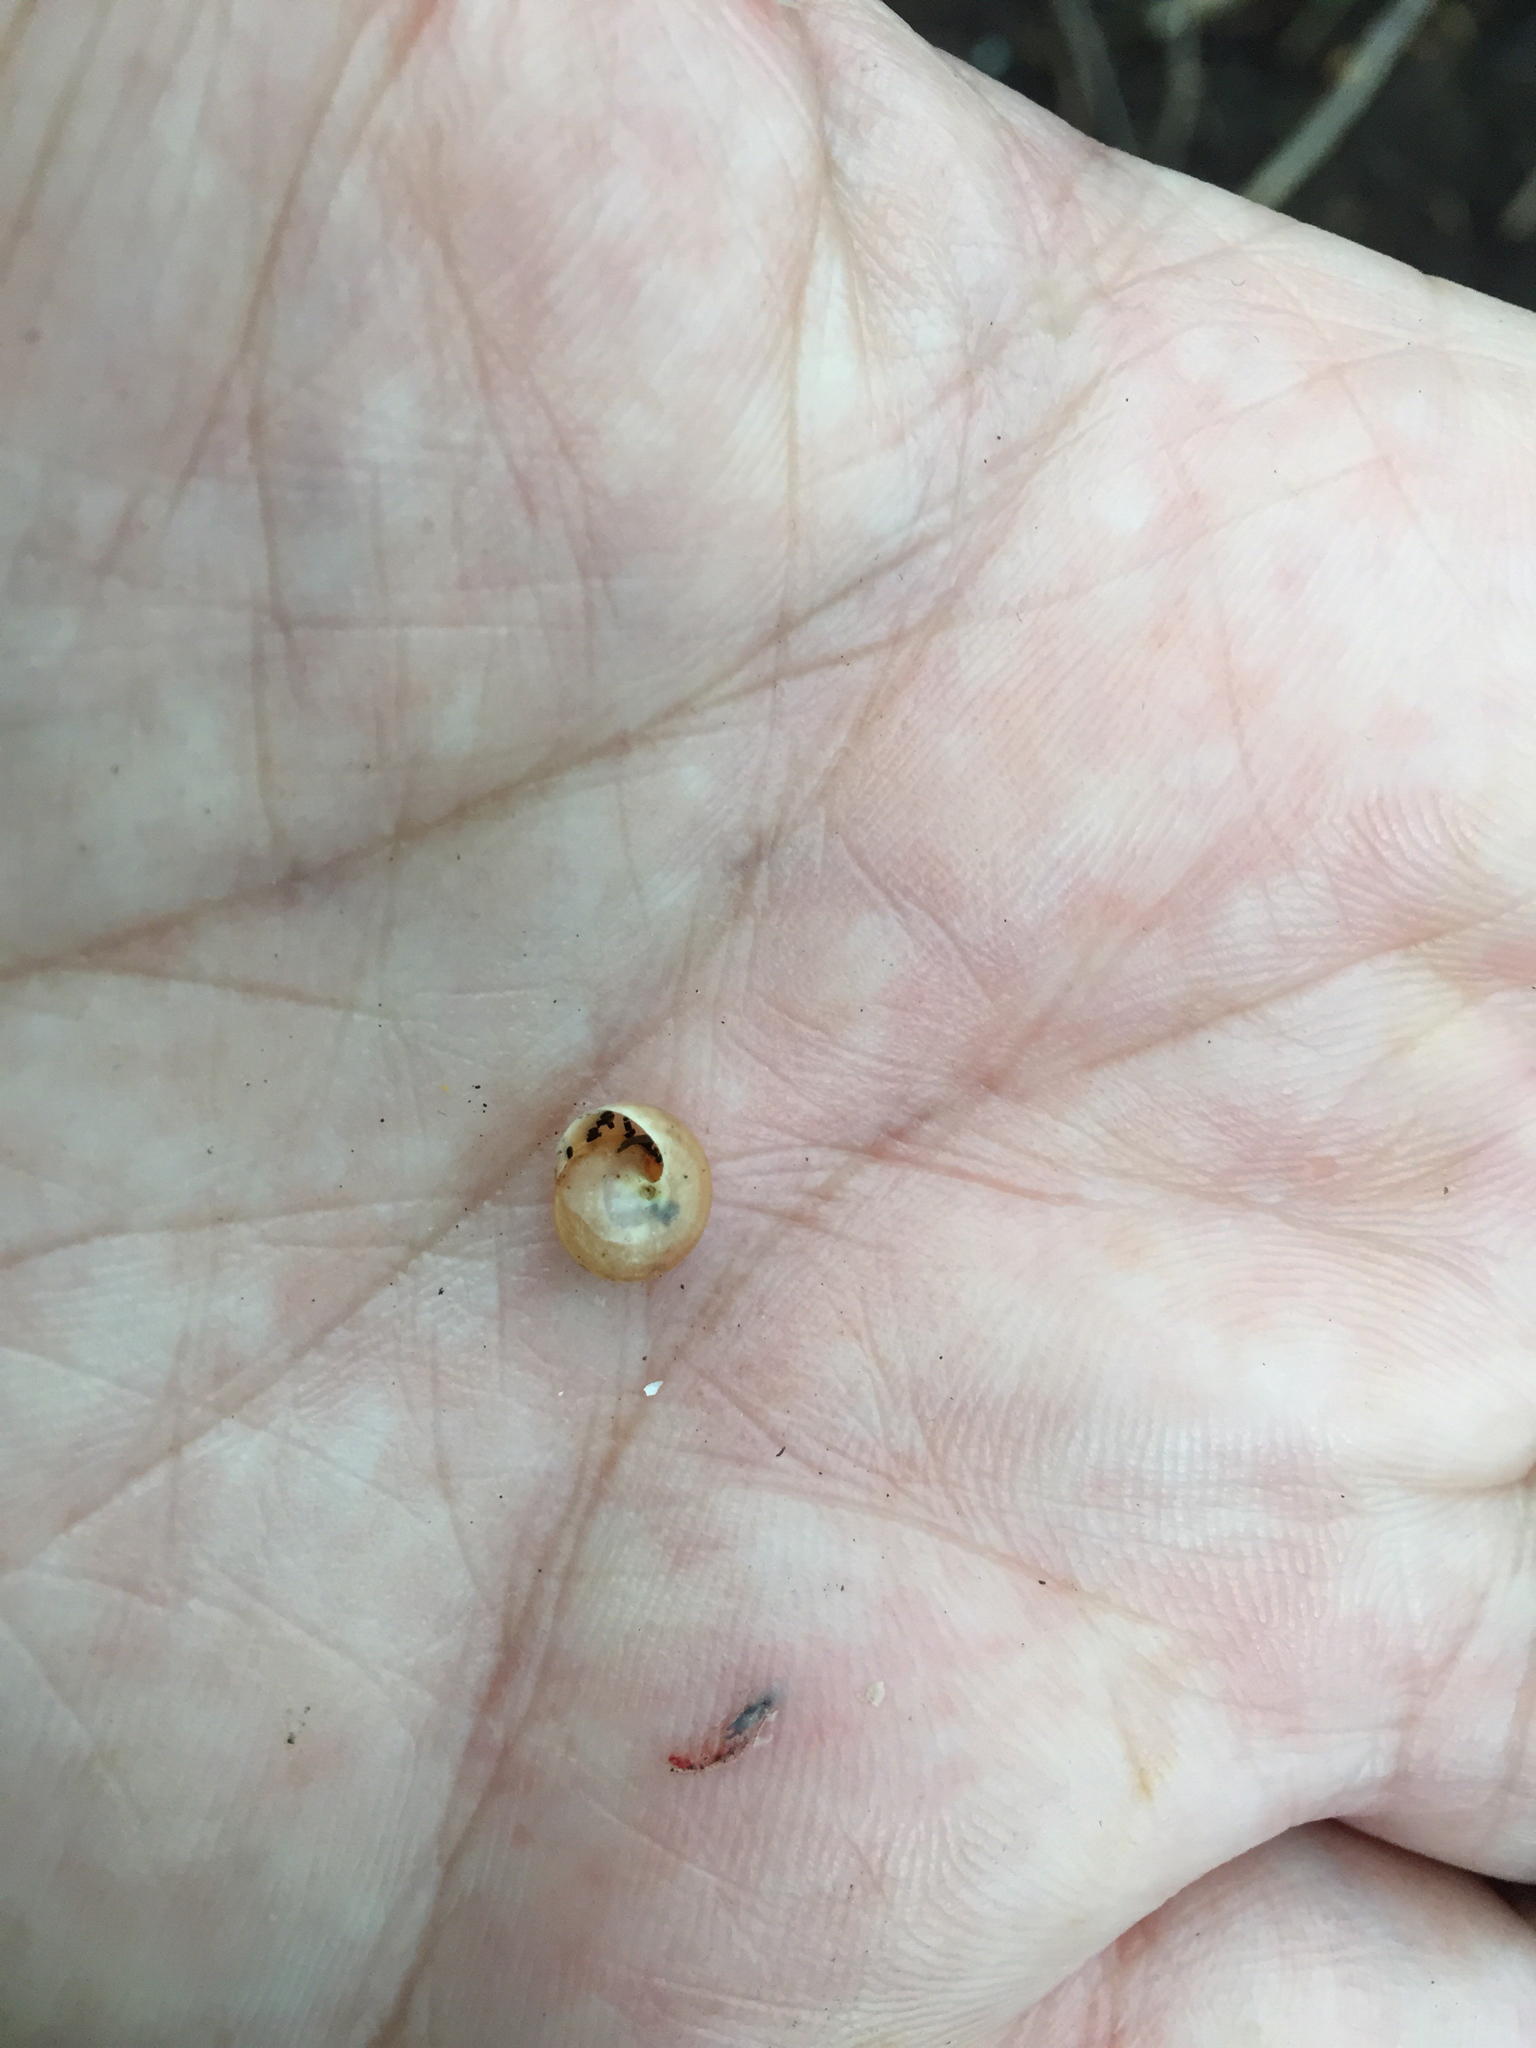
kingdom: Animalia
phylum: Mollusca
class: Gastropoda
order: Cycloneritida
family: Helicinidae
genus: Helicina
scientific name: Helicina orbiculata
